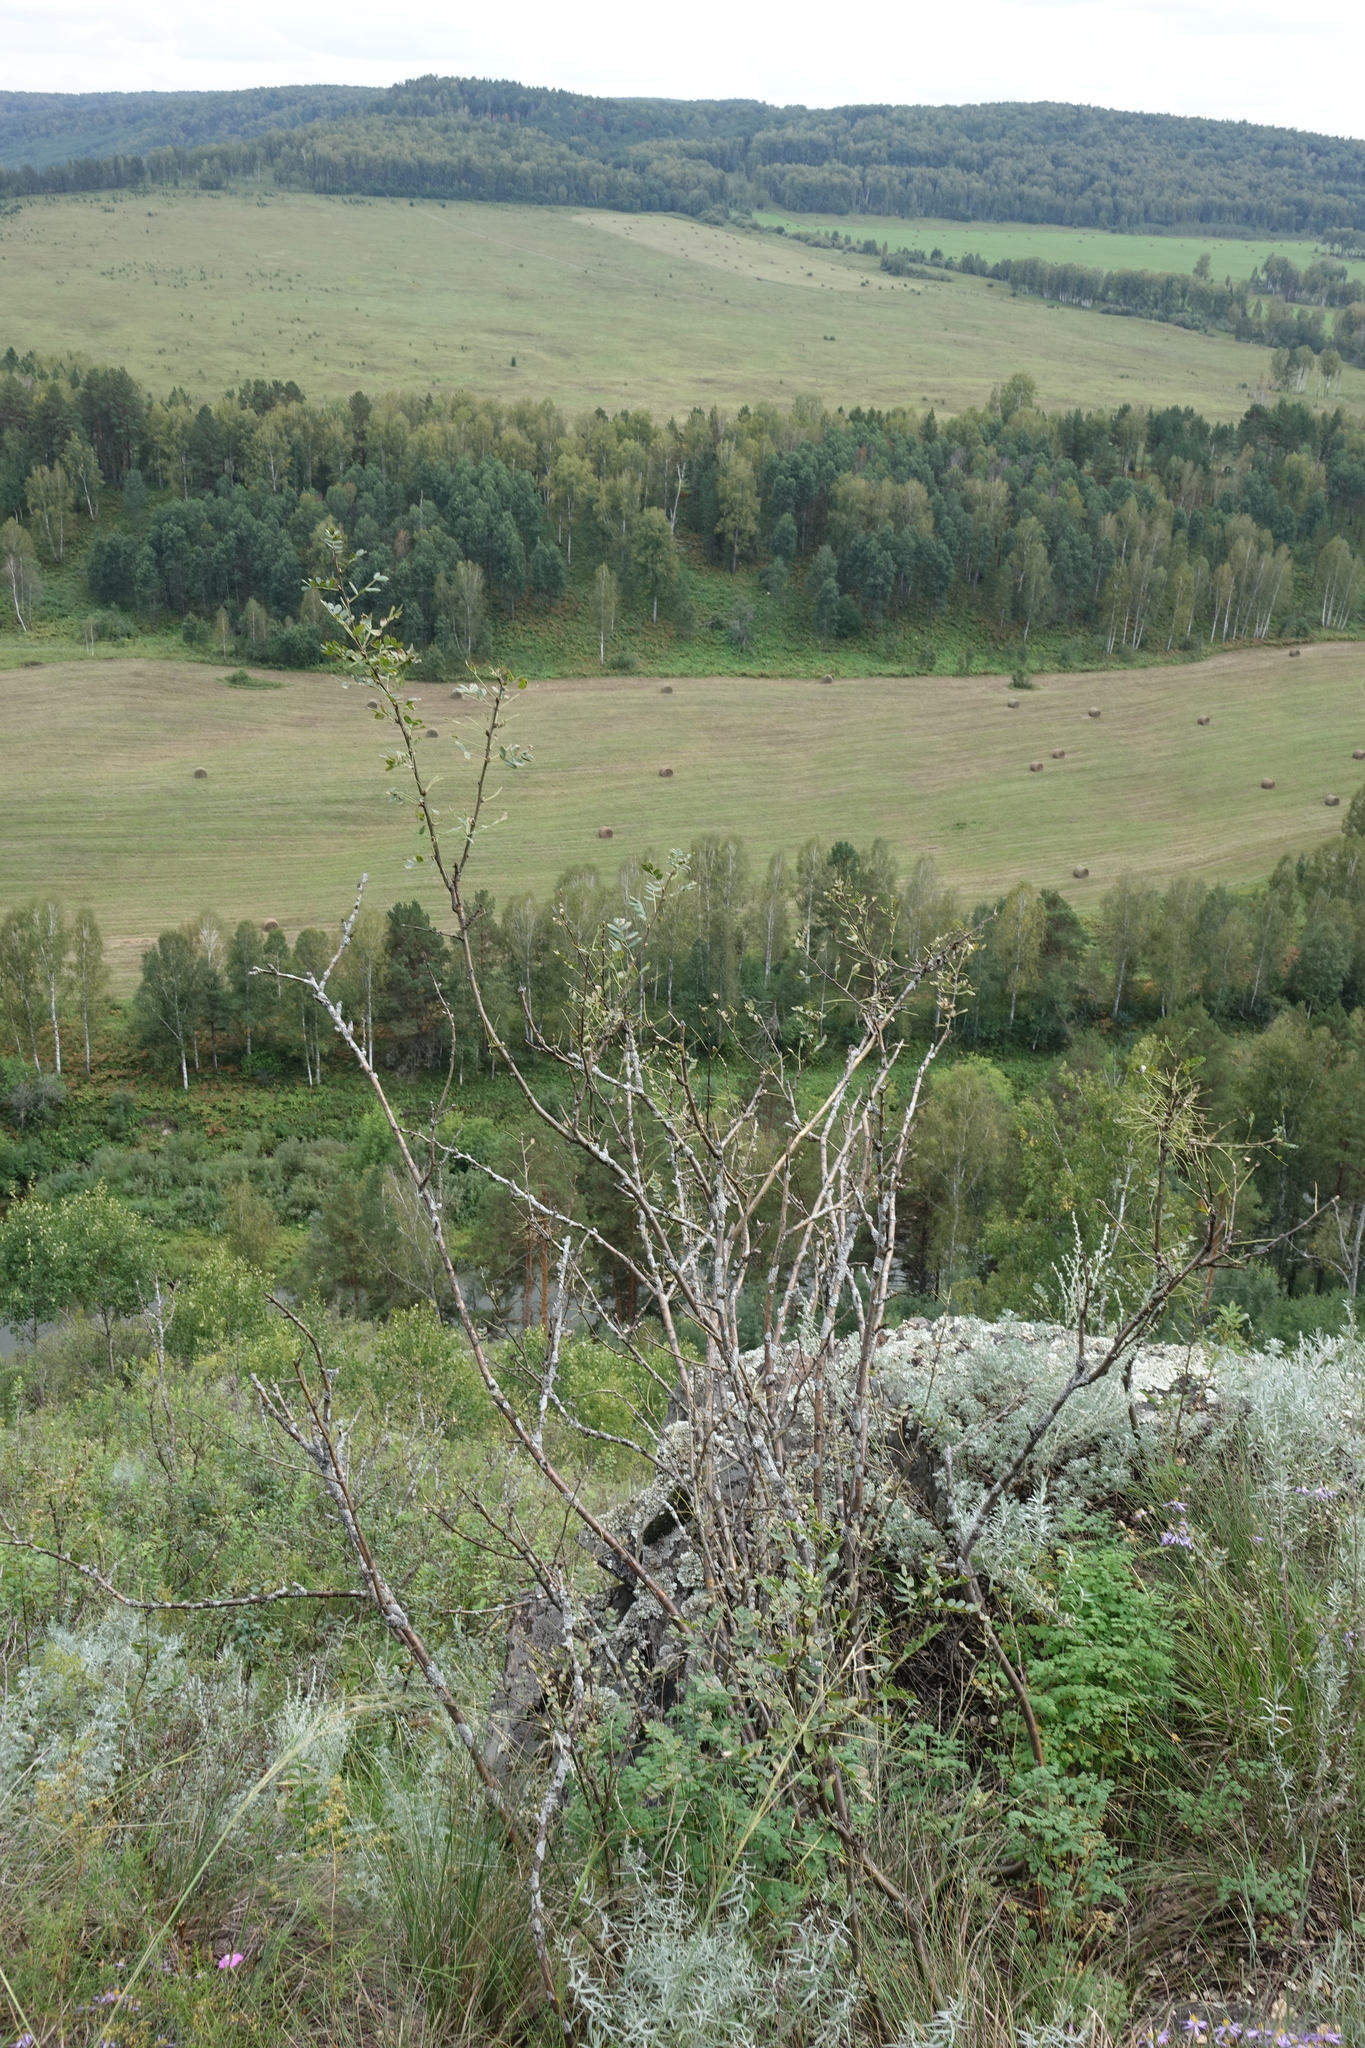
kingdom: Plantae
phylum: Tracheophyta
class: Magnoliopsida
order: Fabales
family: Fabaceae
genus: Caragana
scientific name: Caragana arborescens
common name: Siberian peashrub
